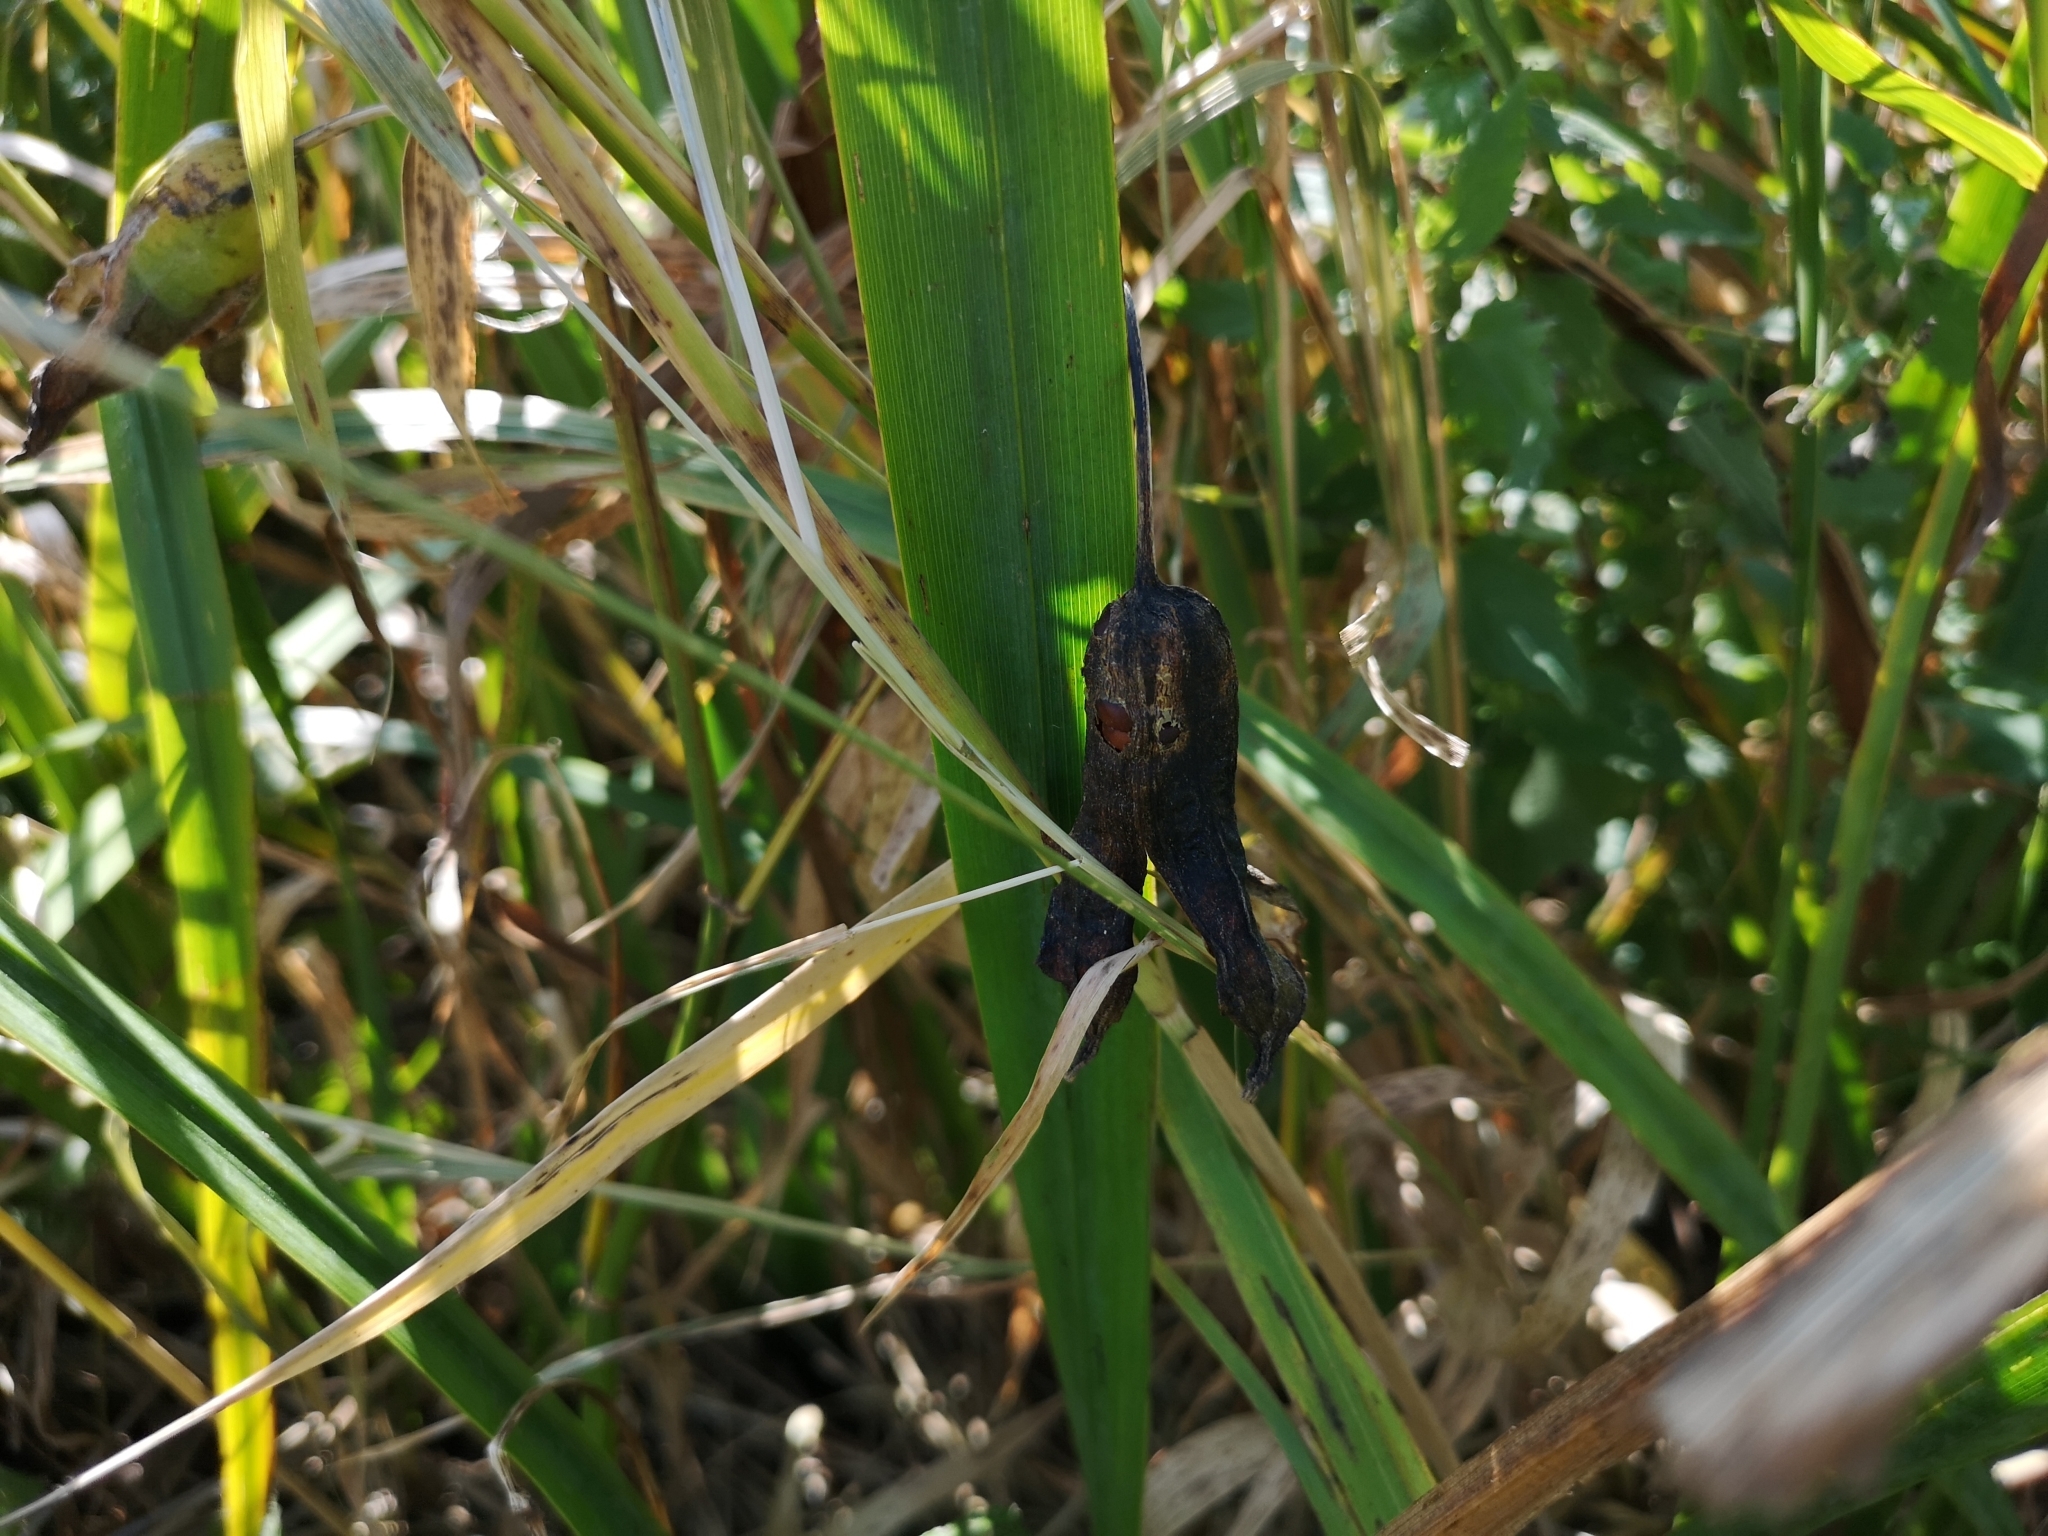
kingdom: Plantae
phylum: Tracheophyta
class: Liliopsida
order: Asparagales
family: Iridaceae
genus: Iris
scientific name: Iris pseudacorus
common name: Yellow flag
